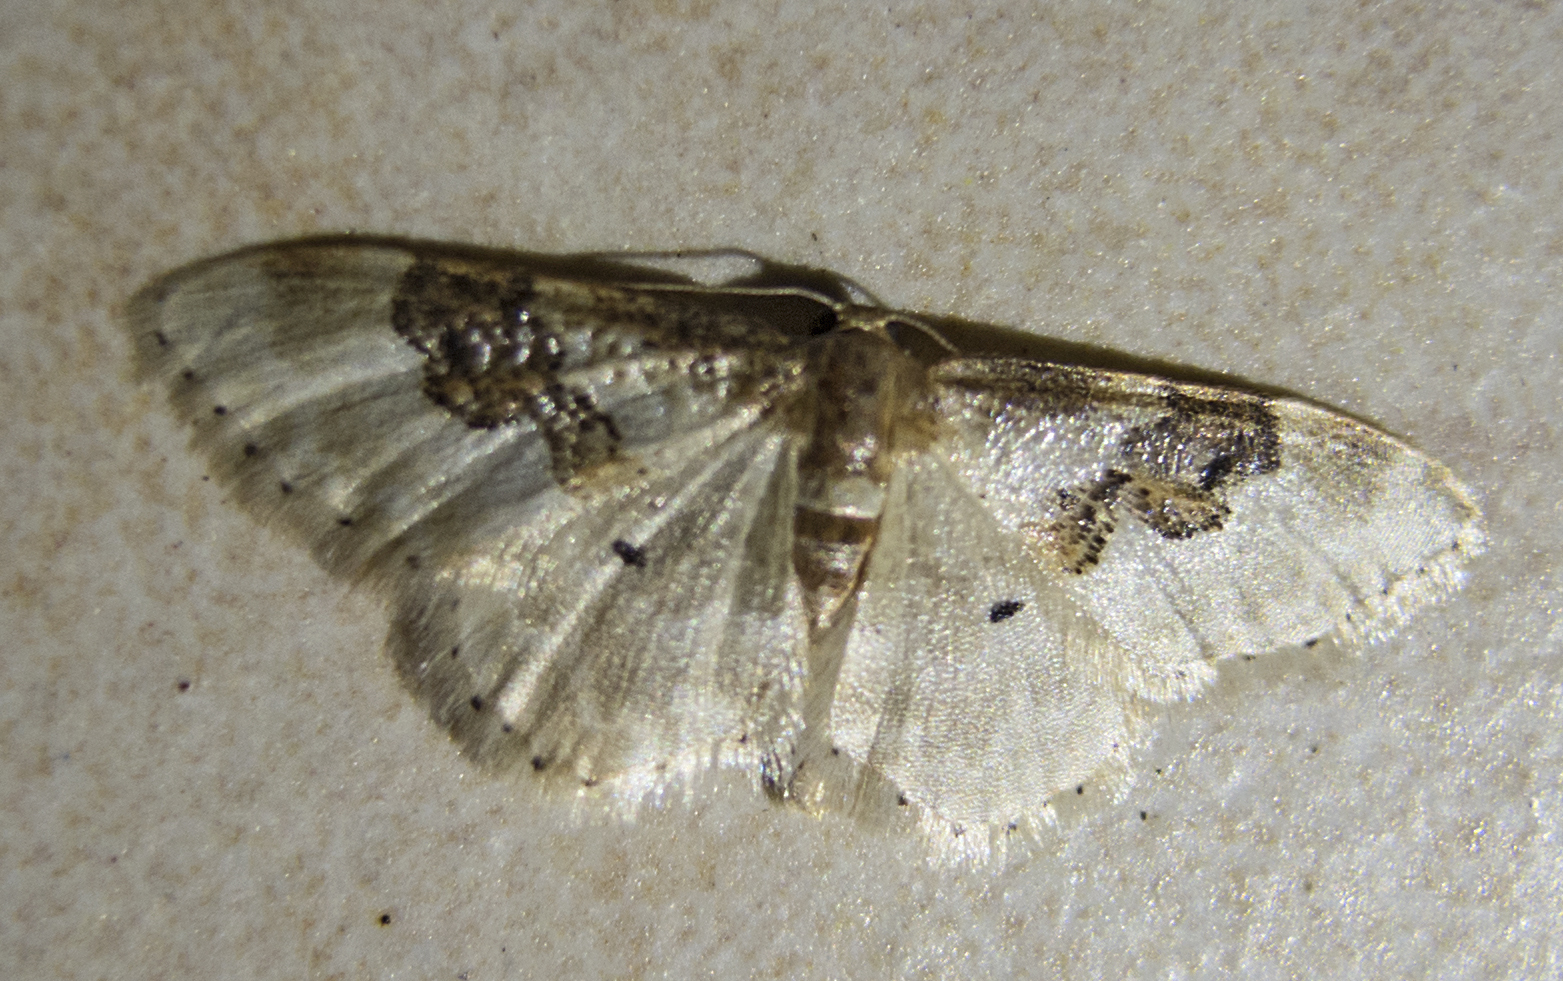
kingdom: Animalia
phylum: Arthropoda
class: Insecta
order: Lepidoptera
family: Geometridae
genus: Idaea
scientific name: Idaea rusticata
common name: Least carpet
